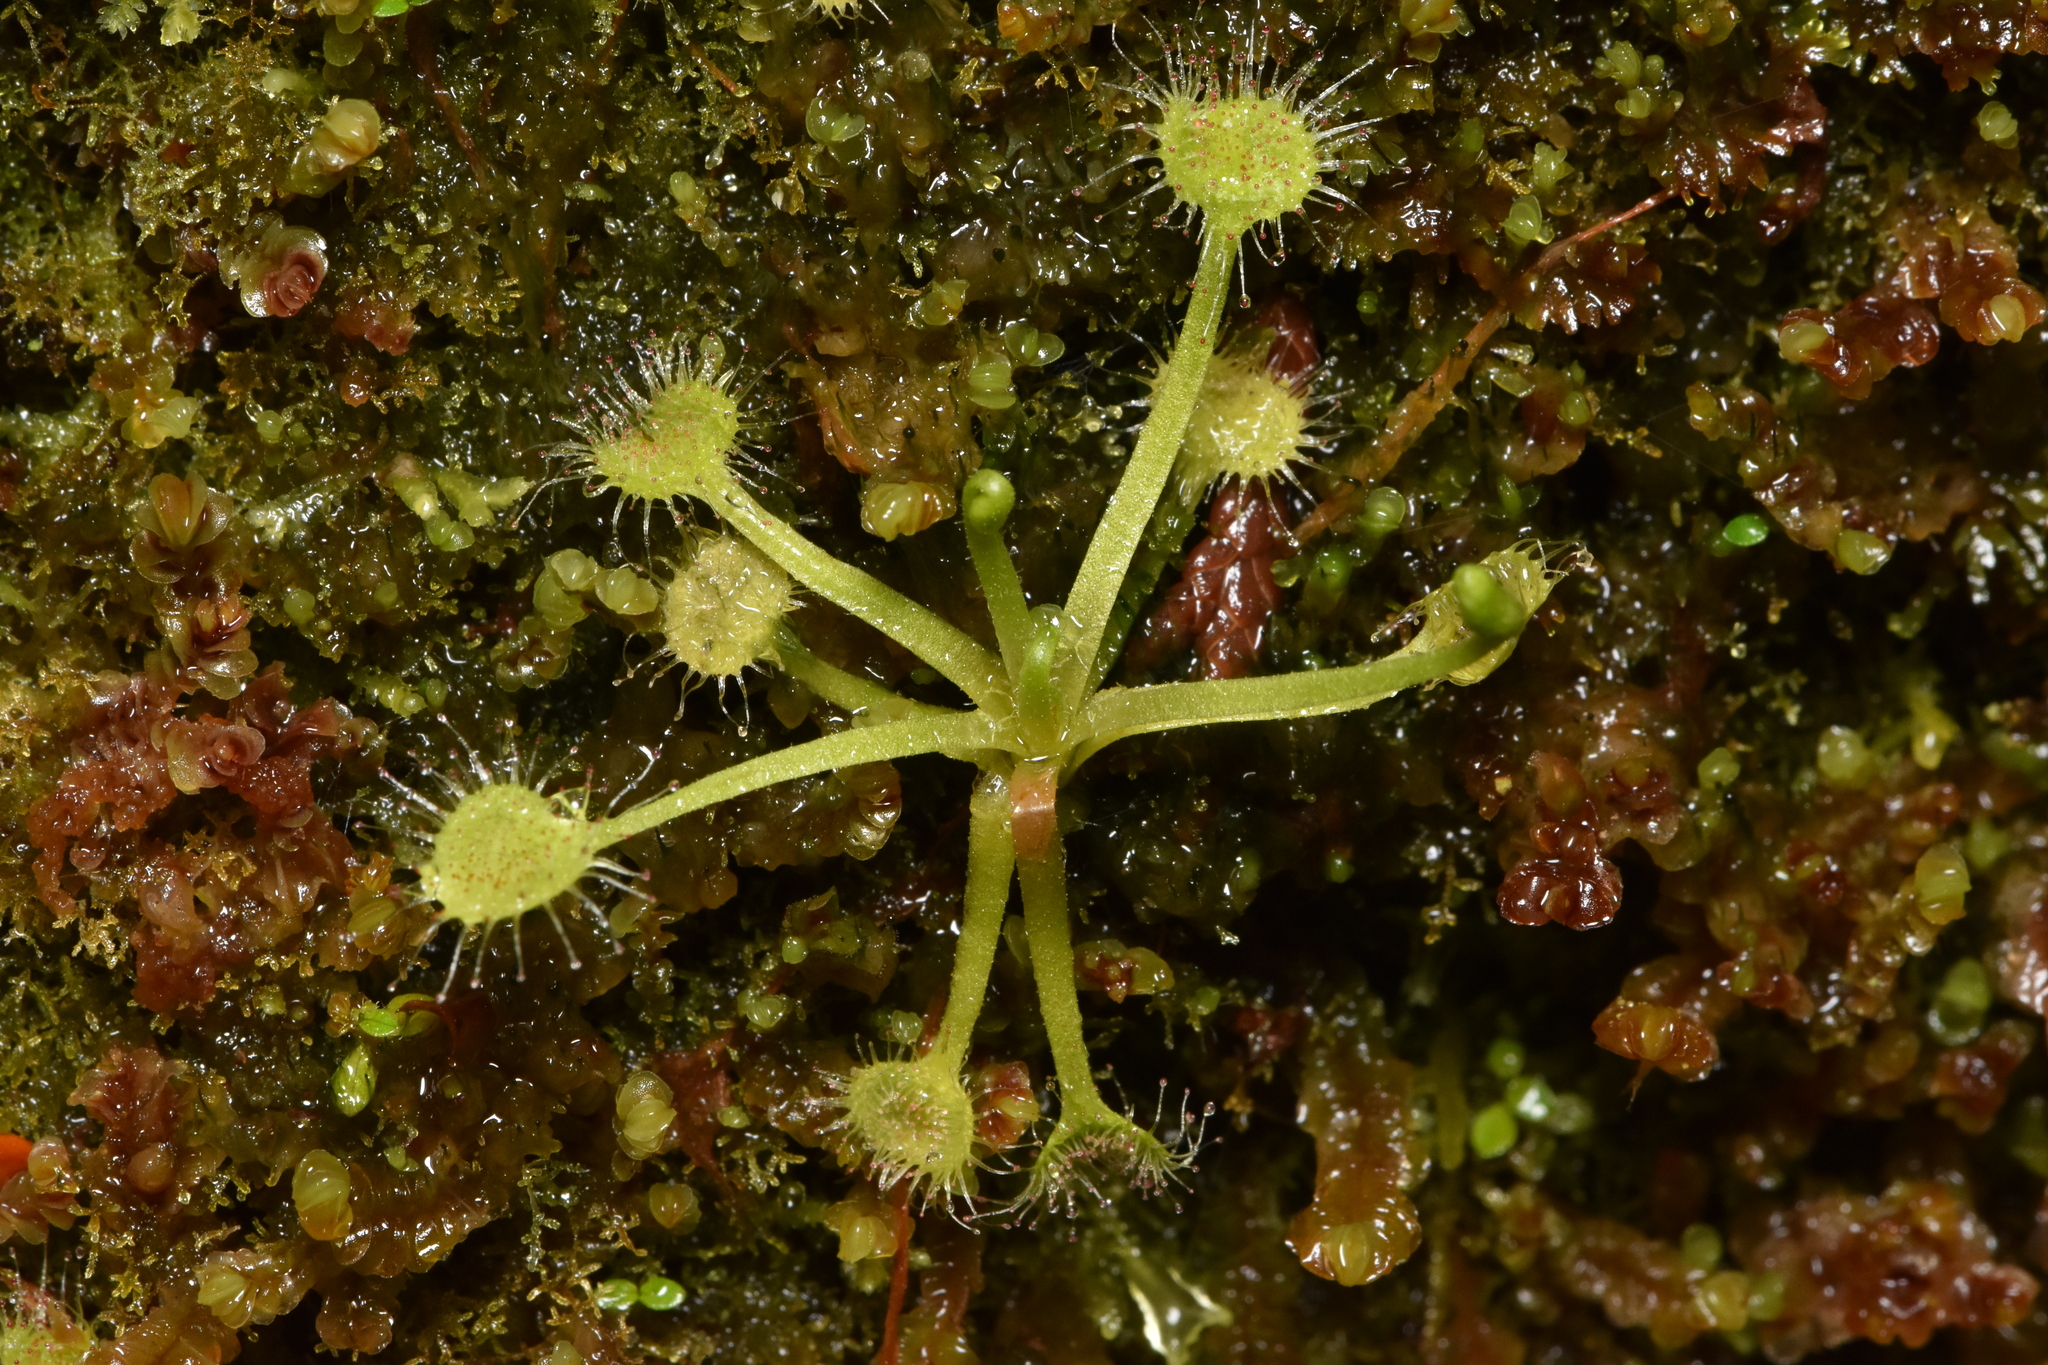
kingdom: Plantae
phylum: Tracheophyta
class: Magnoliopsida
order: Caryophyllales
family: Droseraceae
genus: Drosera
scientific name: Drosera rotundifolia
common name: Round-leaved sundew
